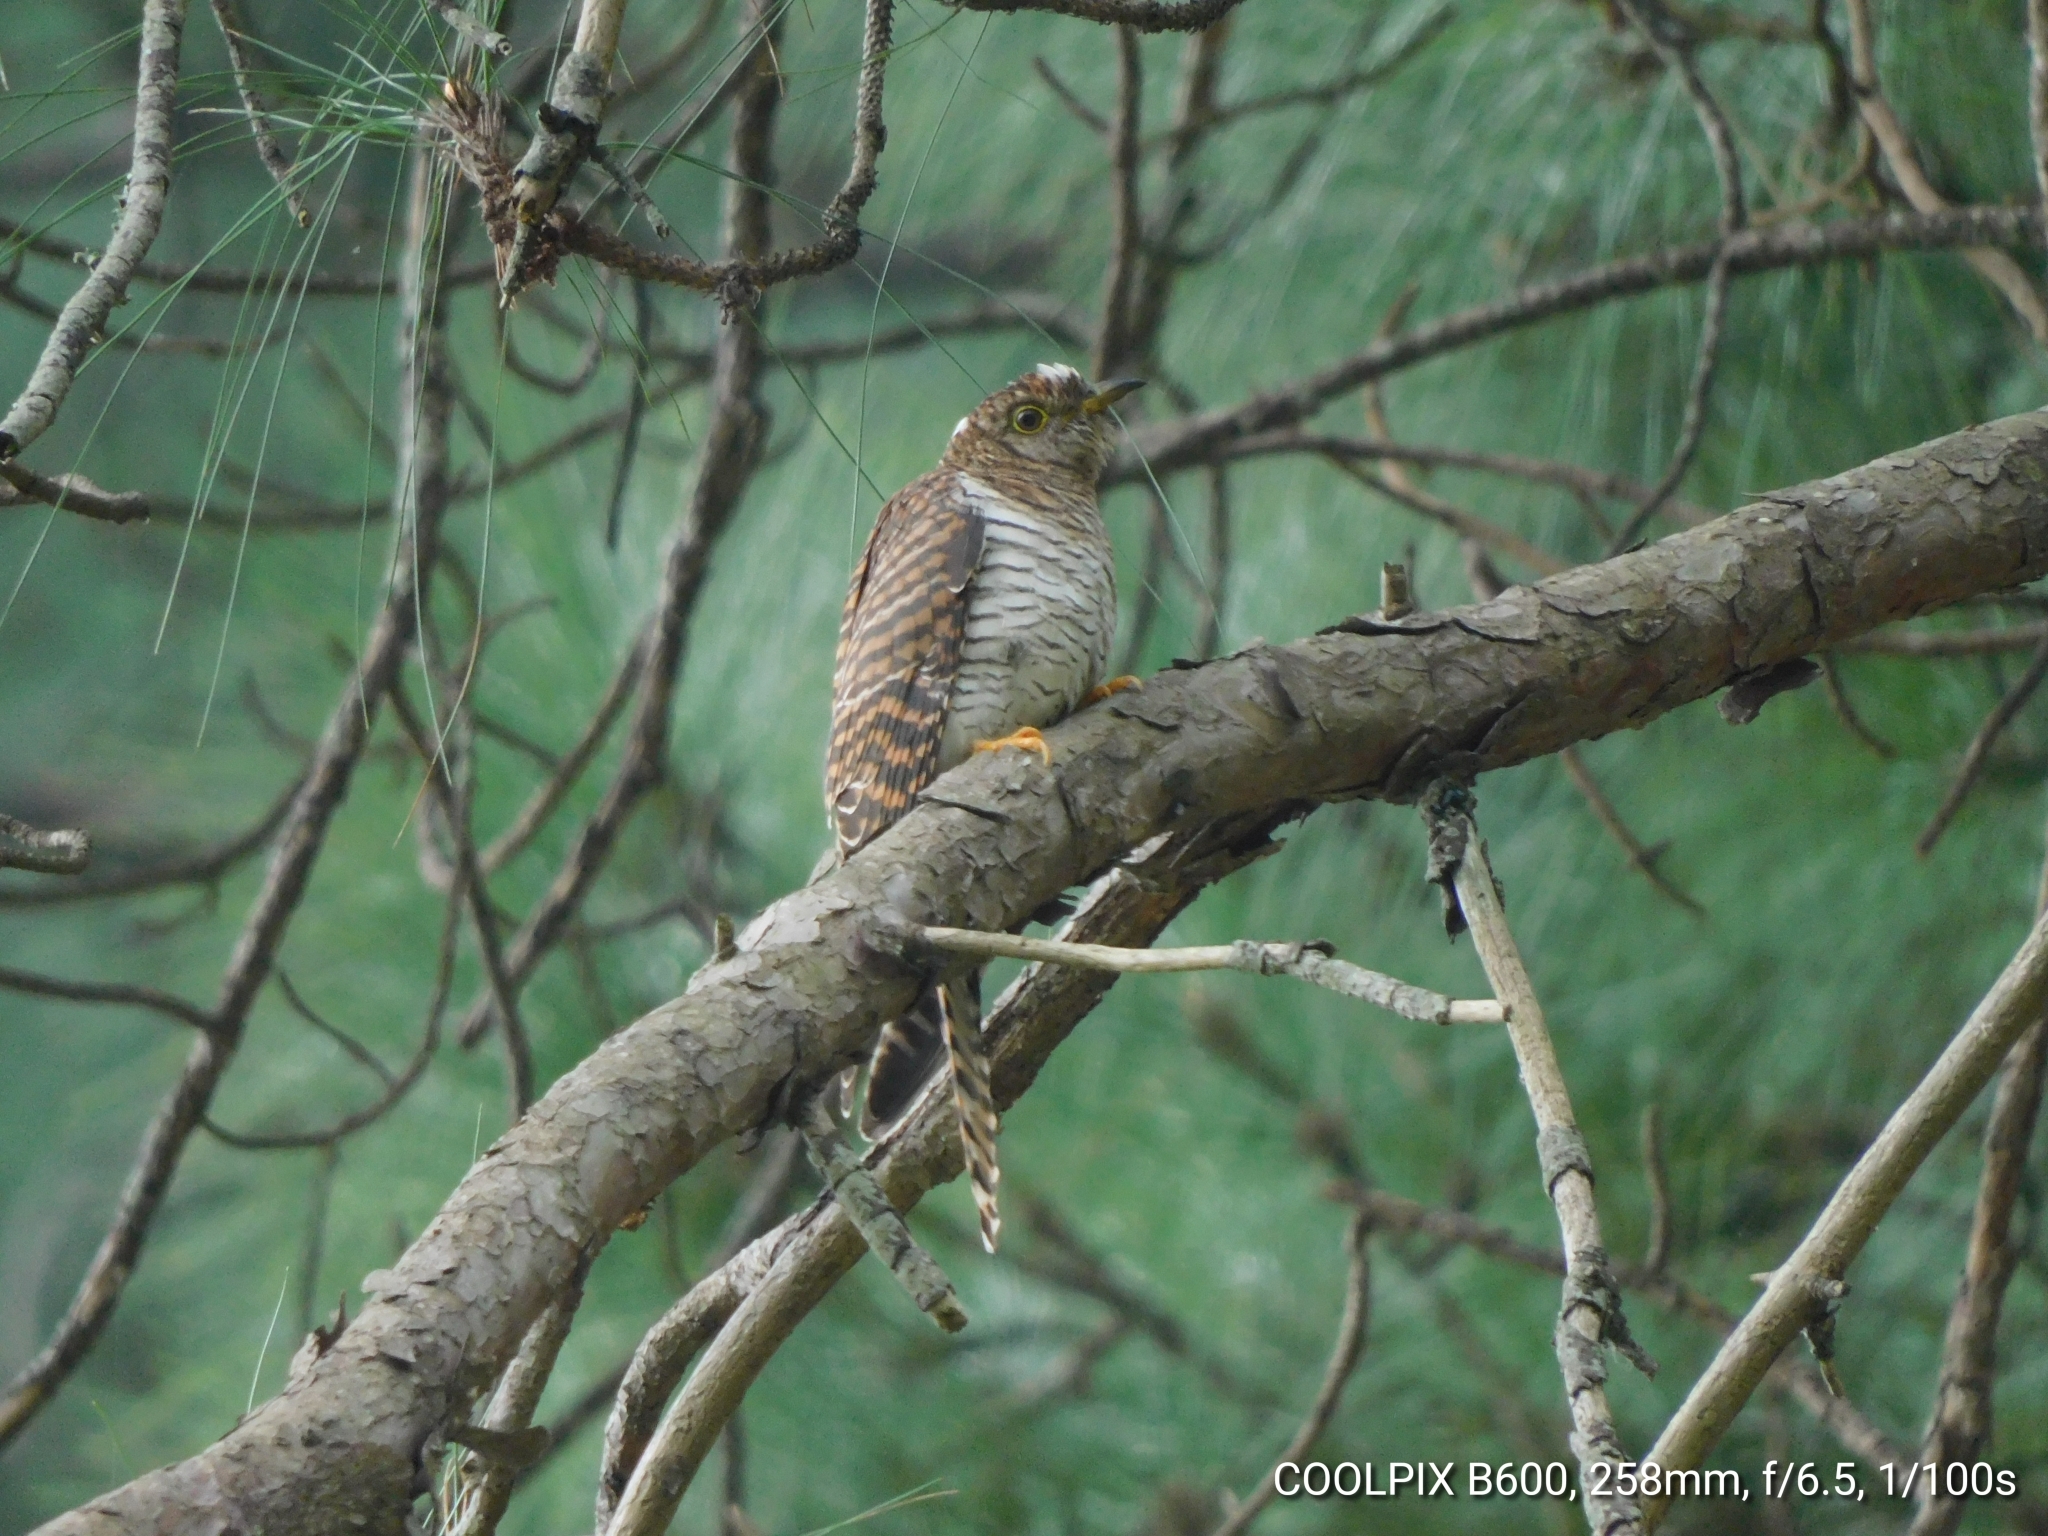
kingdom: Animalia
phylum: Chordata
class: Aves
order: Cuculiformes
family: Cuculidae
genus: Cuculus
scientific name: Cuculus canorus
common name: Common cuckoo
